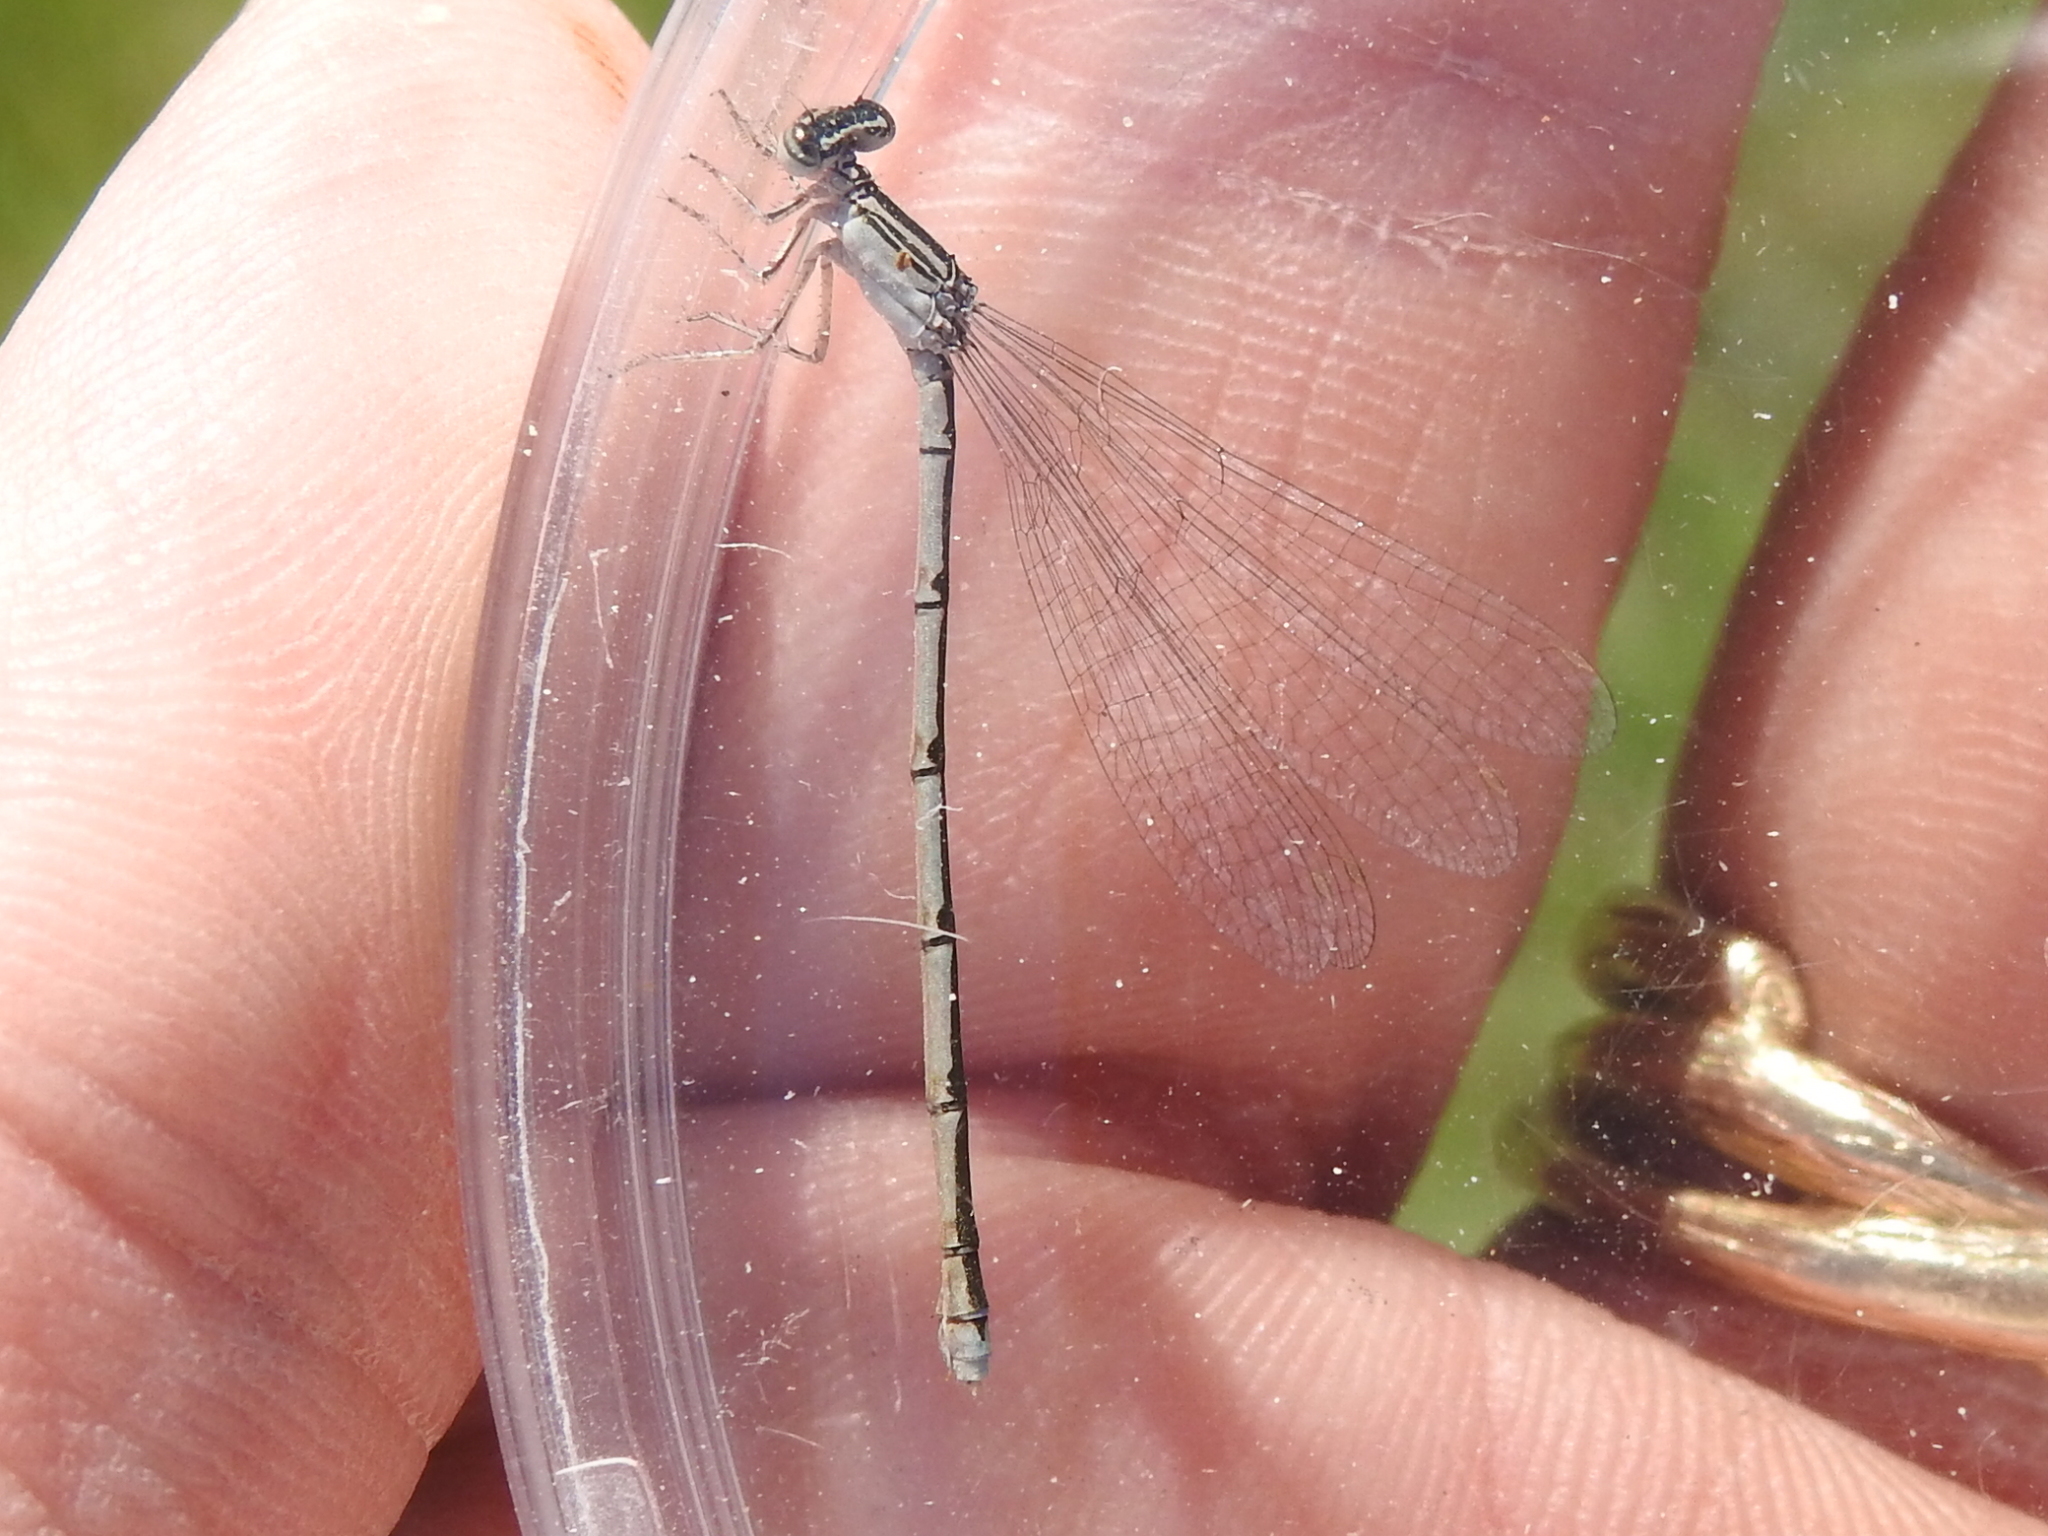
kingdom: Animalia
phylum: Arthropoda
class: Insecta
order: Odonata
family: Coenagrionidae
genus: Enallagma
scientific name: Enallagma basidens
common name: Double-striped bluet
